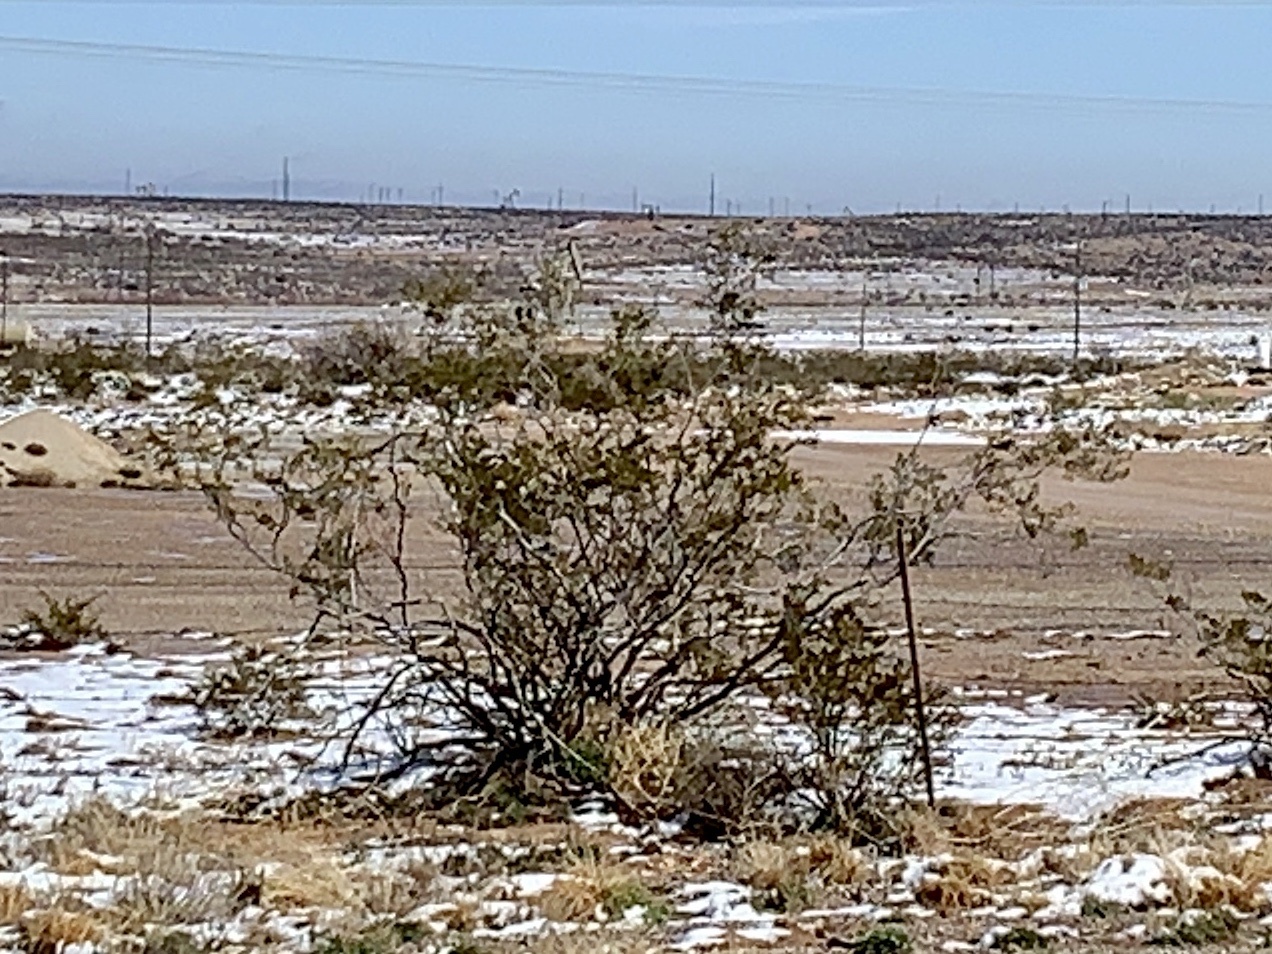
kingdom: Plantae
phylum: Tracheophyta
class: Magnoliopsida
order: Zygophyllales
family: Zygophyllaceae
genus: Larrea
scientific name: Larrea tridentata
